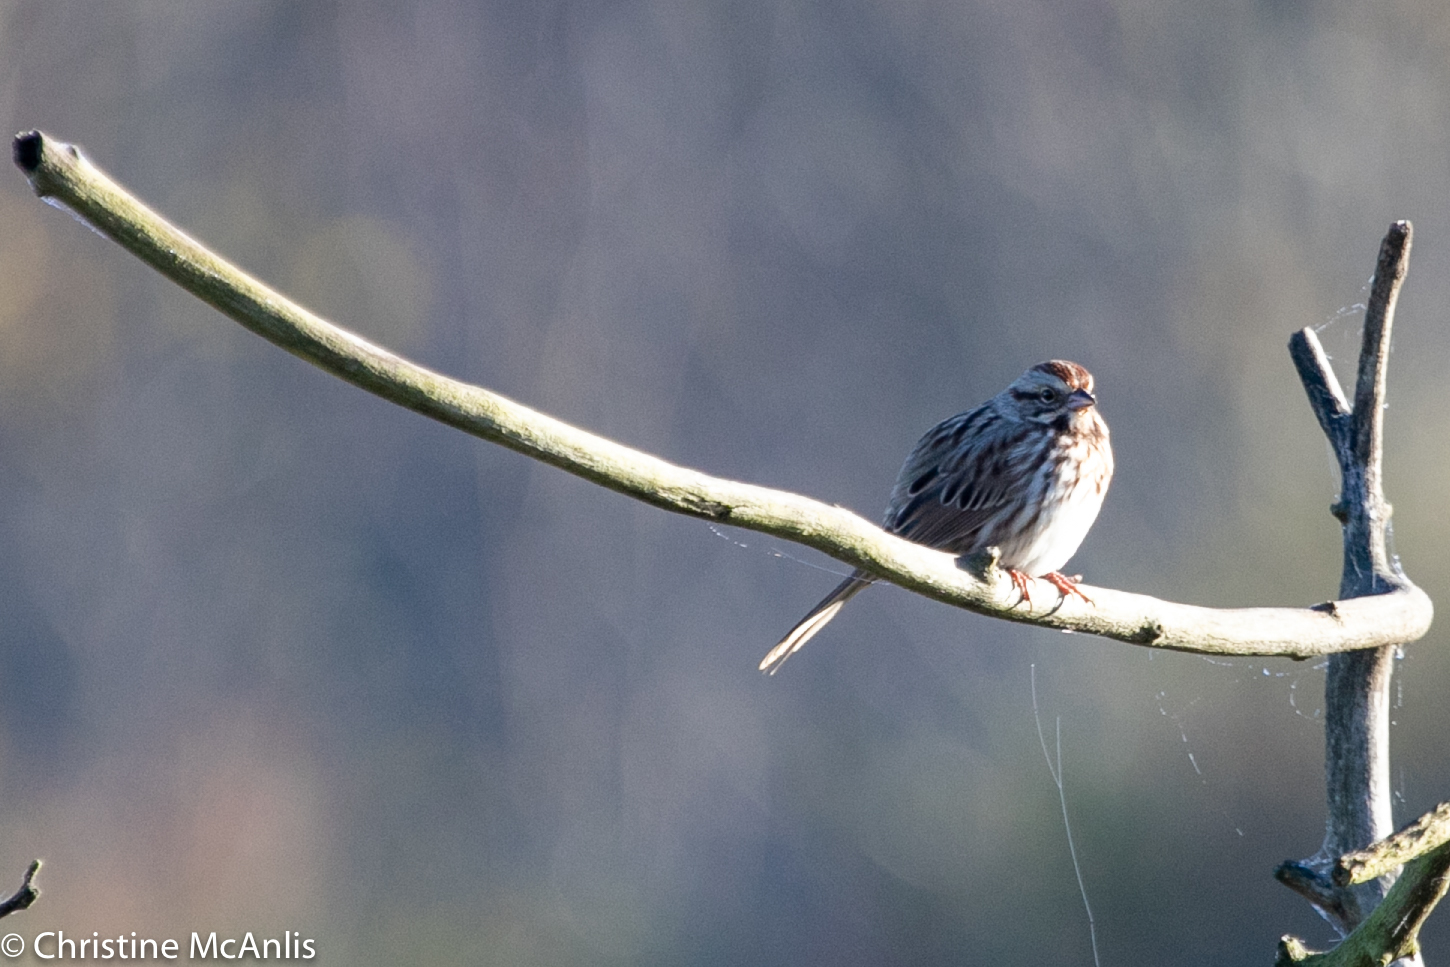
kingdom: Animalia
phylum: Chordata
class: Aves
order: Passeriformes
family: Passerellidae
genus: Melospiza
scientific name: Melospiza melodia
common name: Song sparrow
